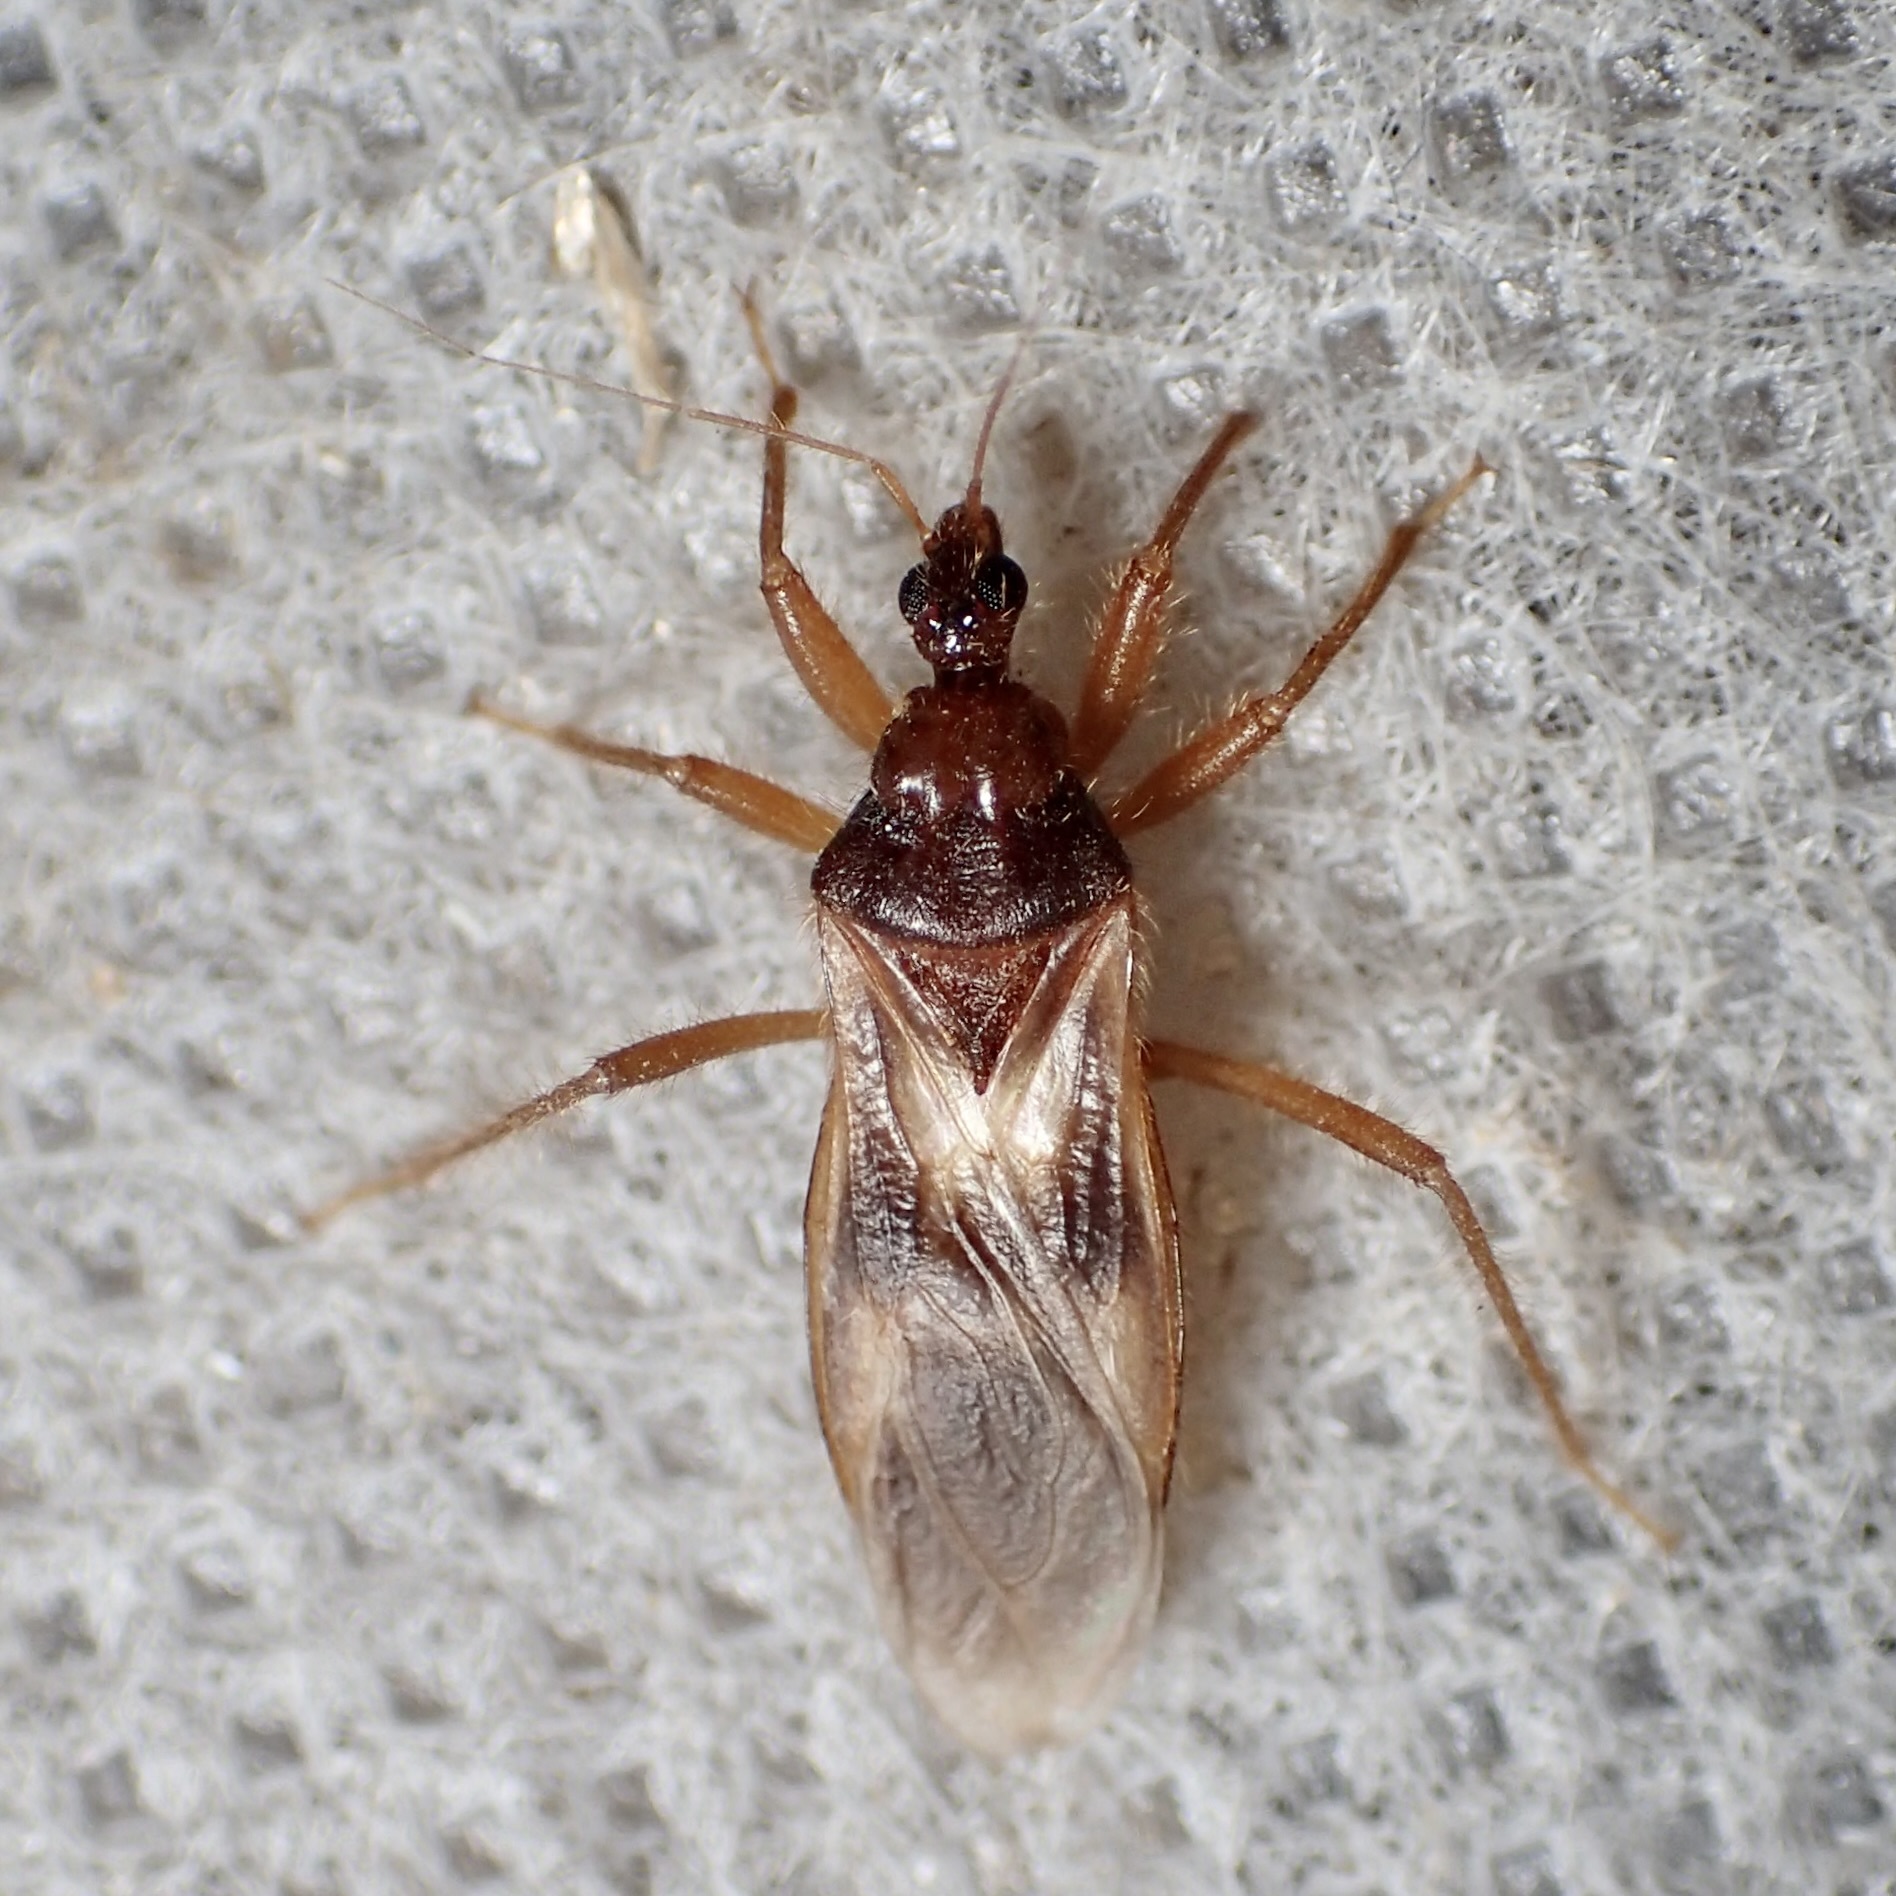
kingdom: Animalia
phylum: Arthropoda
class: Insecta
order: Hemiptera
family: Reduviidae
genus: Reduvius
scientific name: Reduvius senilis
